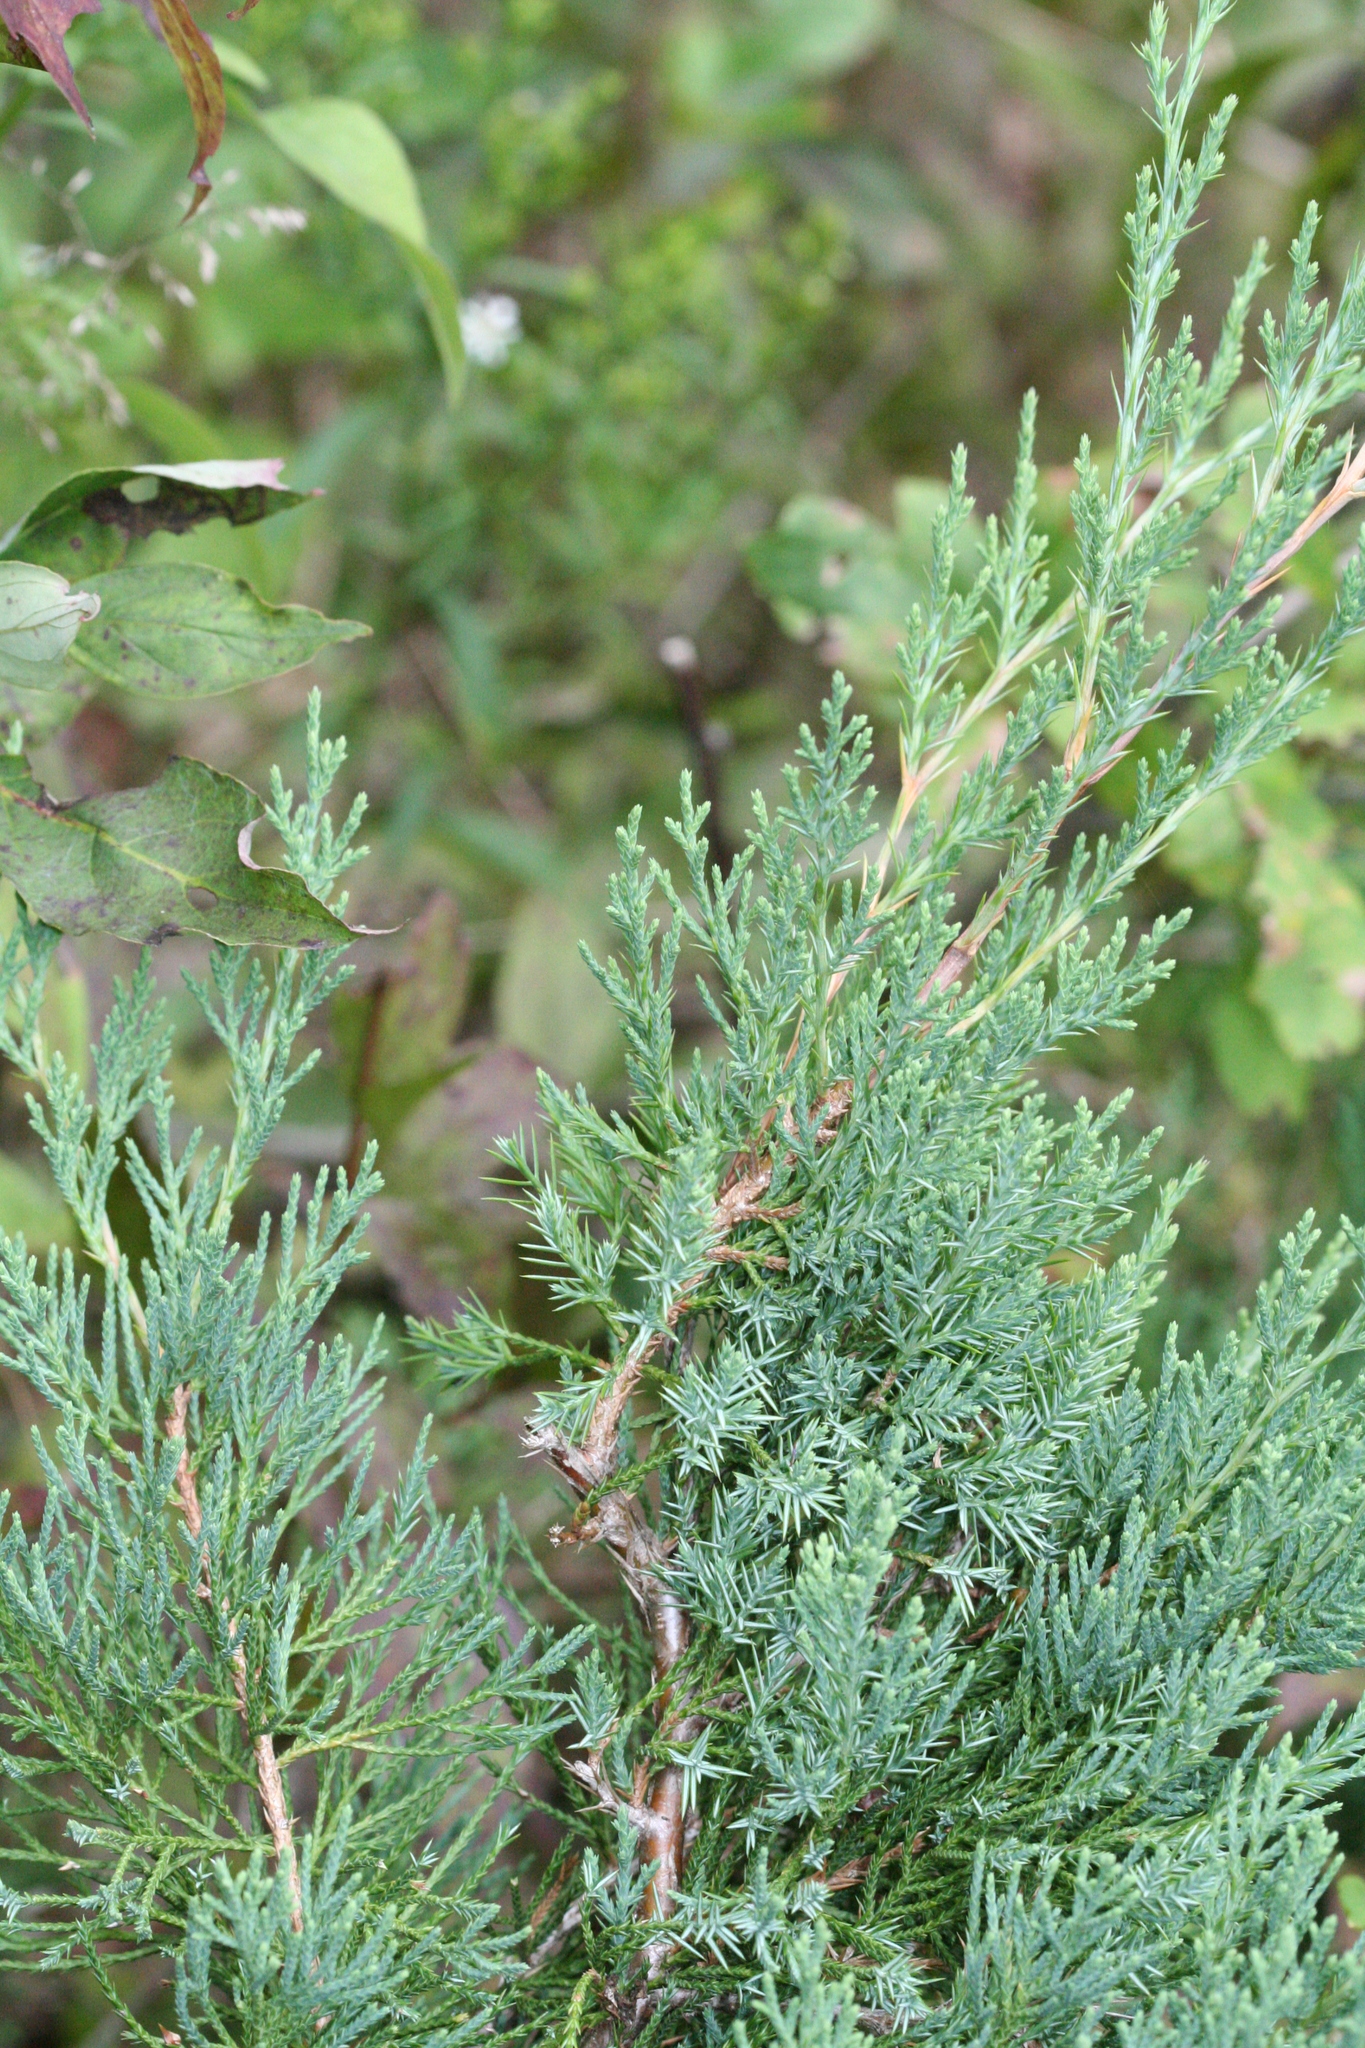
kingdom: Plantae
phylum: Tracheophyta
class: Pinopsida
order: Pinales
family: Cupressaceae
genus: Juniperus
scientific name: Juniperus virginiana
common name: Red juniper
